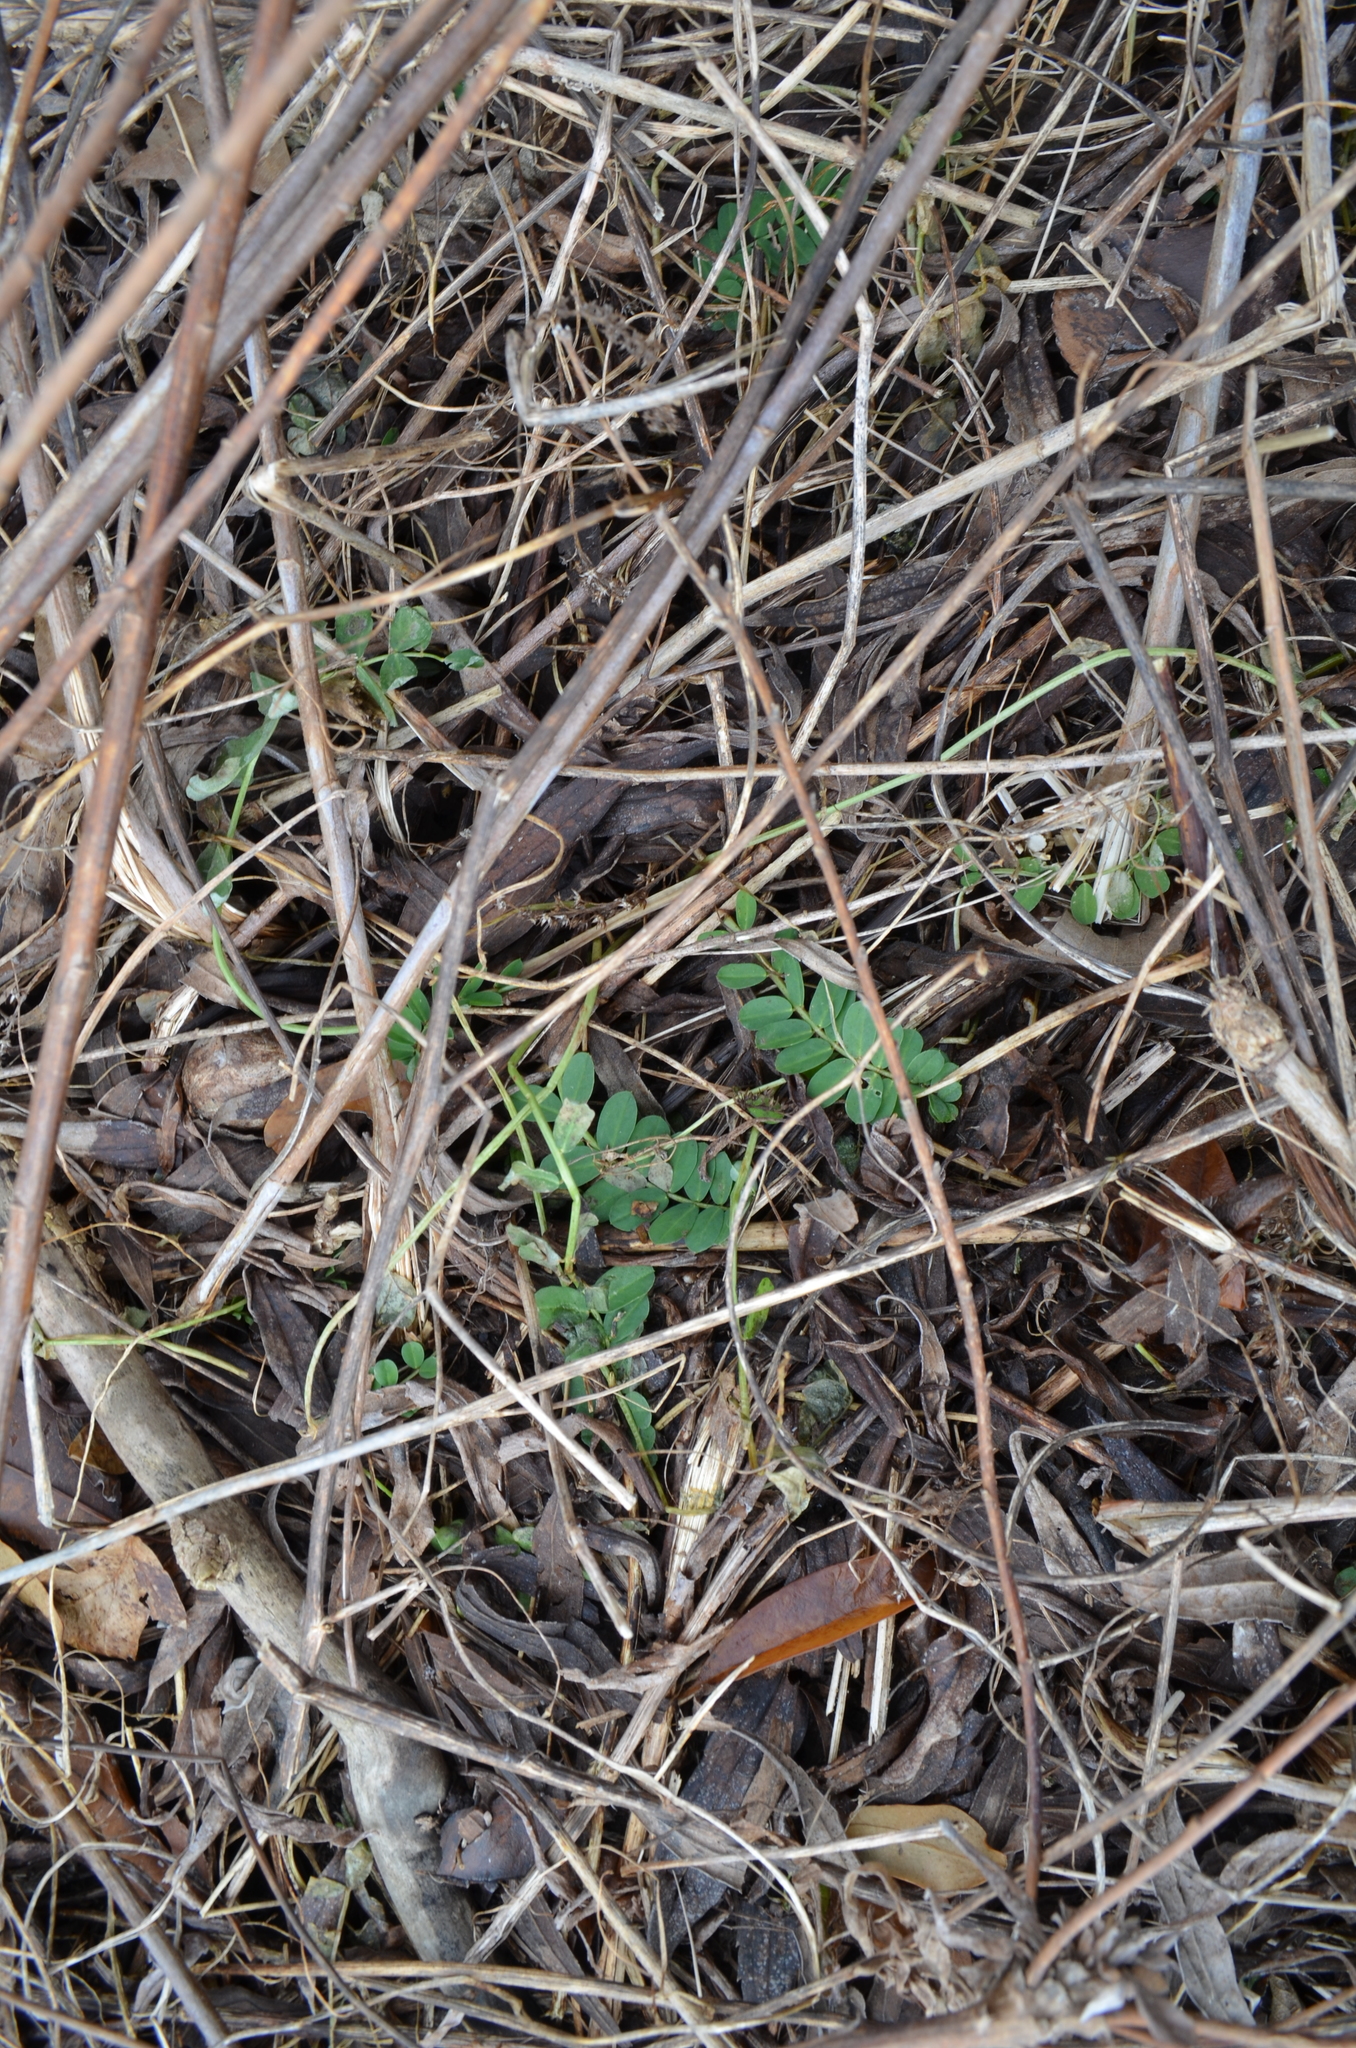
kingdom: Plantae
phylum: Tracheophyta
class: Magnoliopsida
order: Fabales
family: Fabaceae
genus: Coronilla
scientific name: Coronilla varia
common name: Crownvetch
